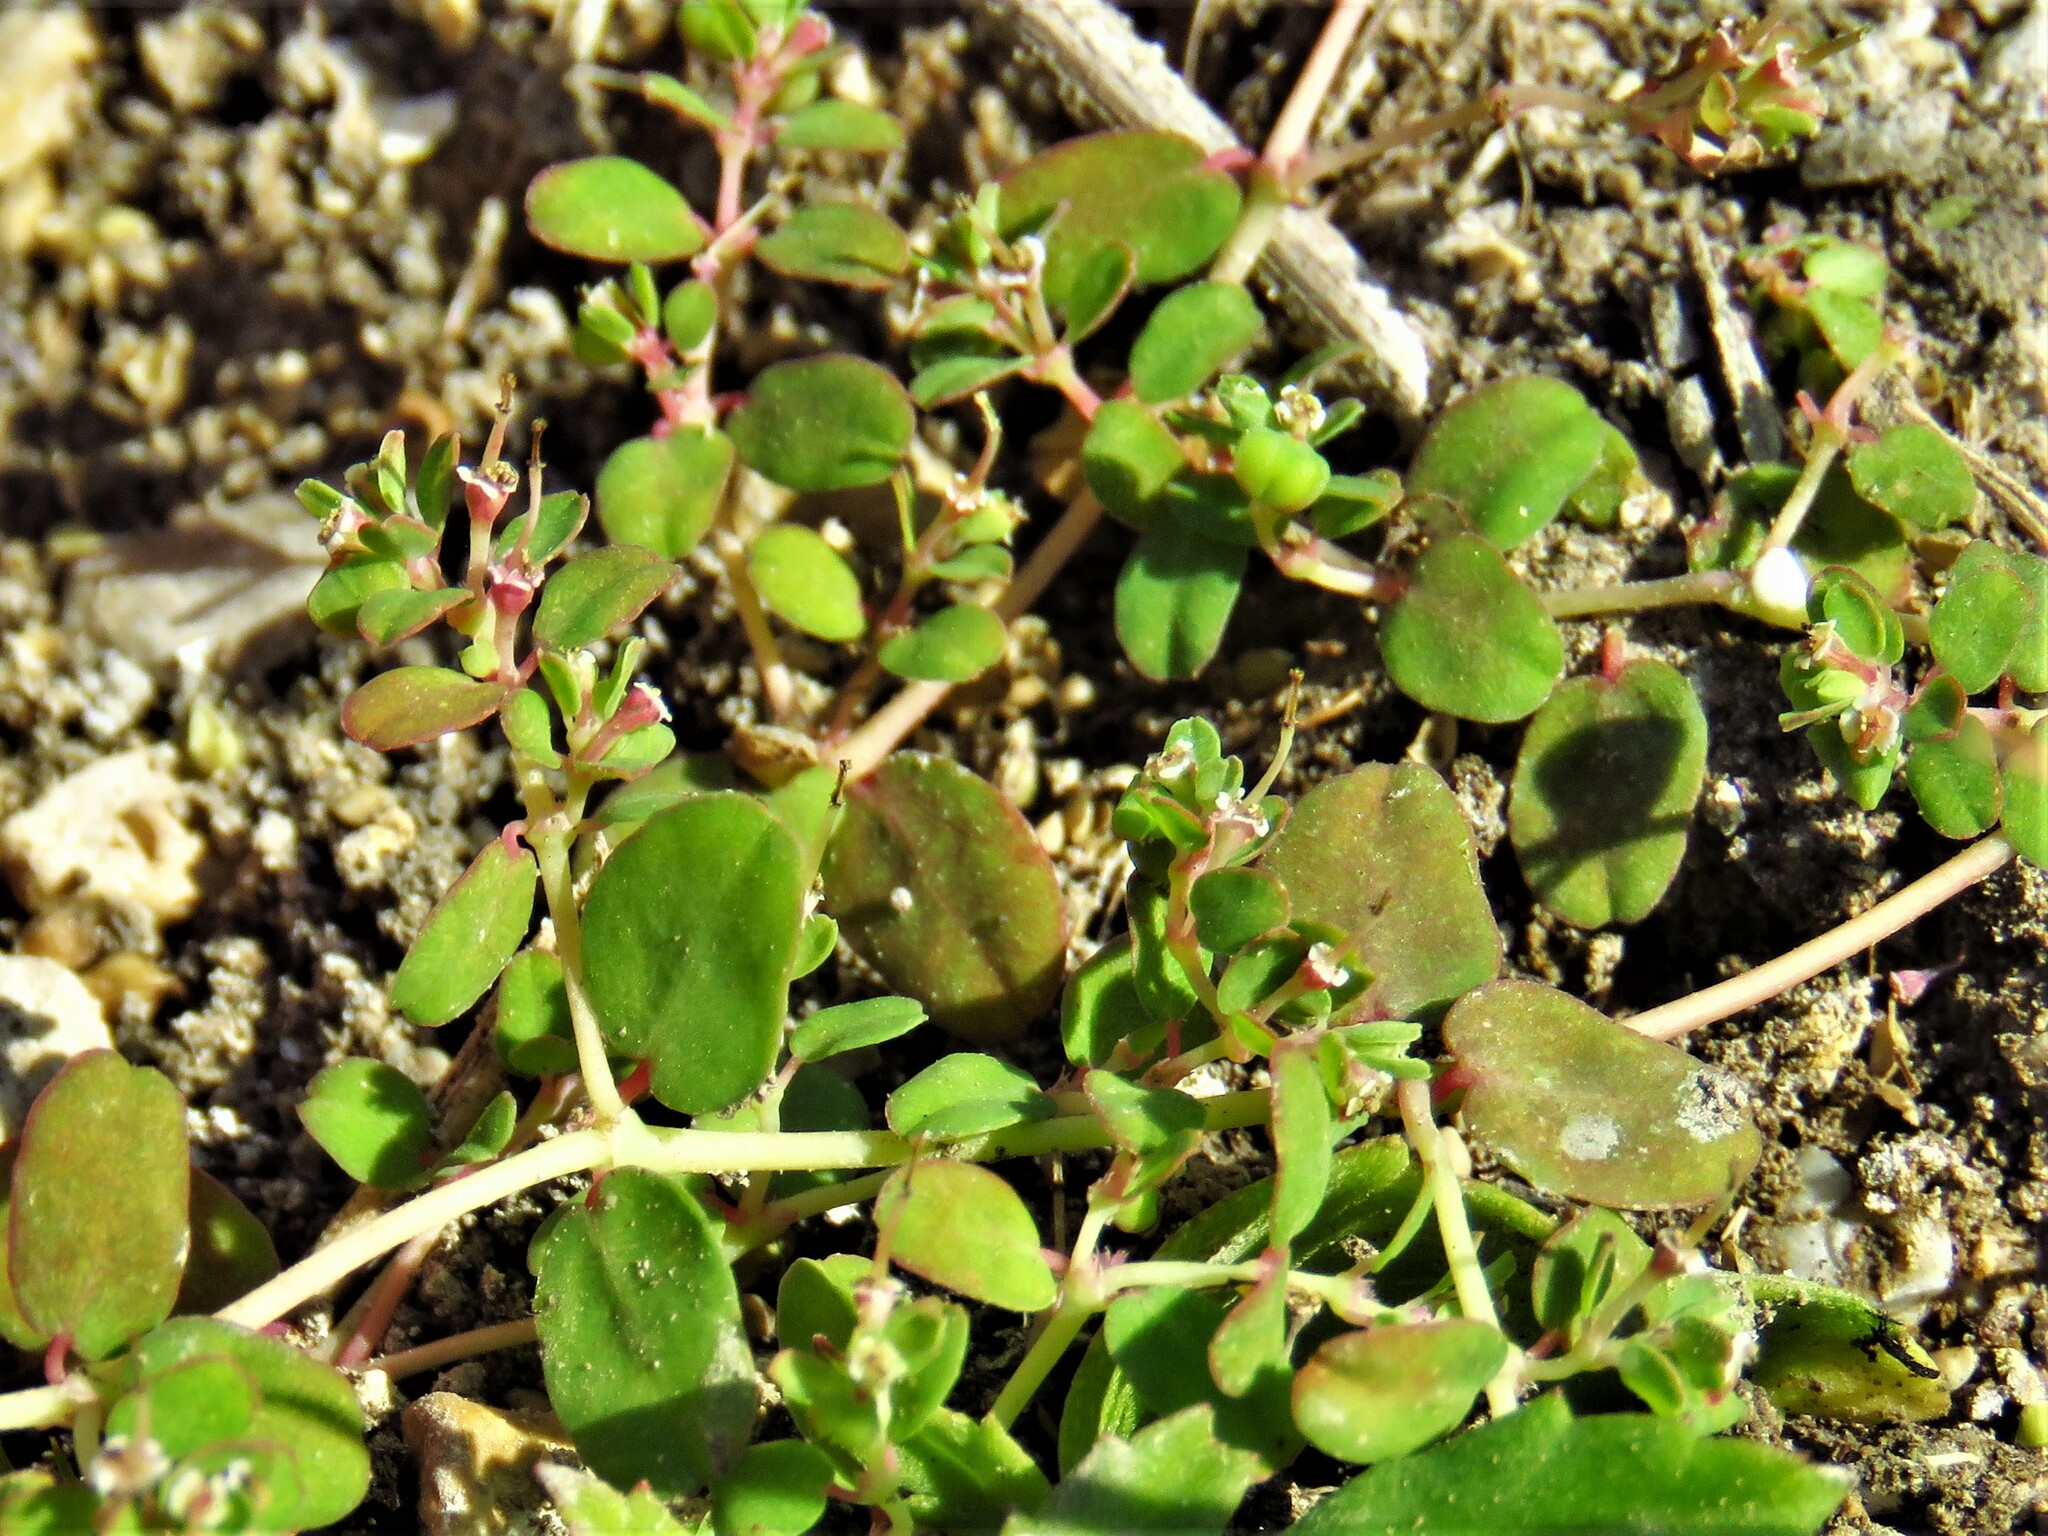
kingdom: Plantae
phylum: Tracheophyta
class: Magnoliopsida
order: Malpighiales
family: Euphorbiaceae
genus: Euphorbia
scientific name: Euphorbia cordifolia
